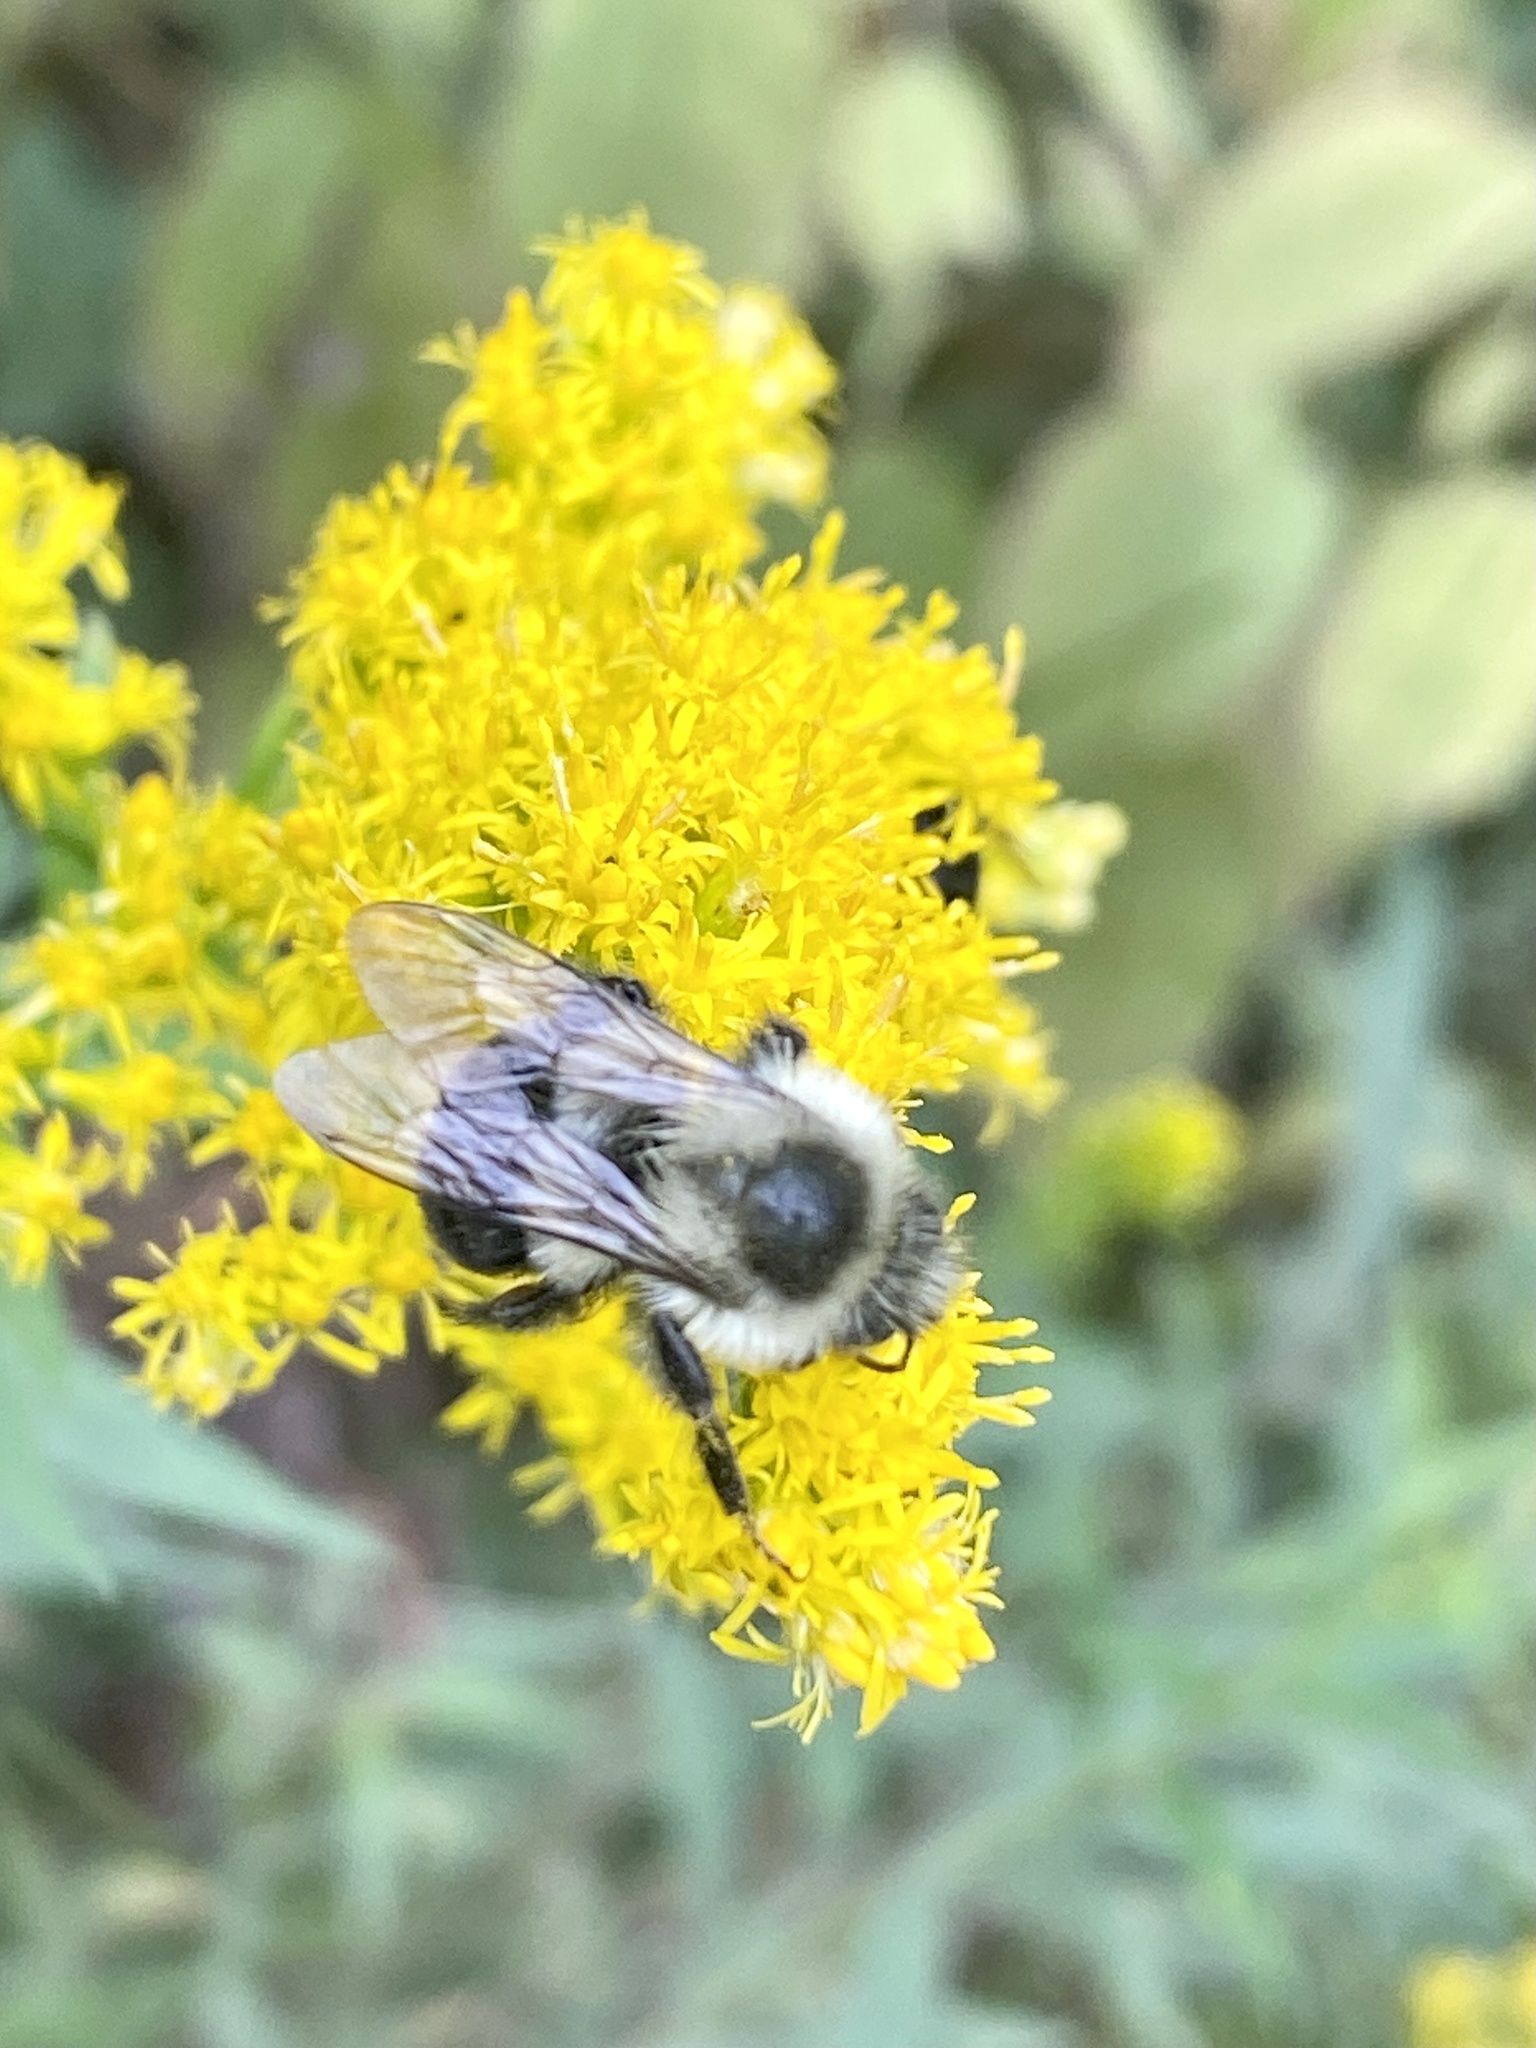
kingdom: Animalia
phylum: Arthropoda
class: Insecta
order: Hymenoptera
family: Apidae
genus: Bombus
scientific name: Bombus impatiens
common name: Common eastern bumble bee
